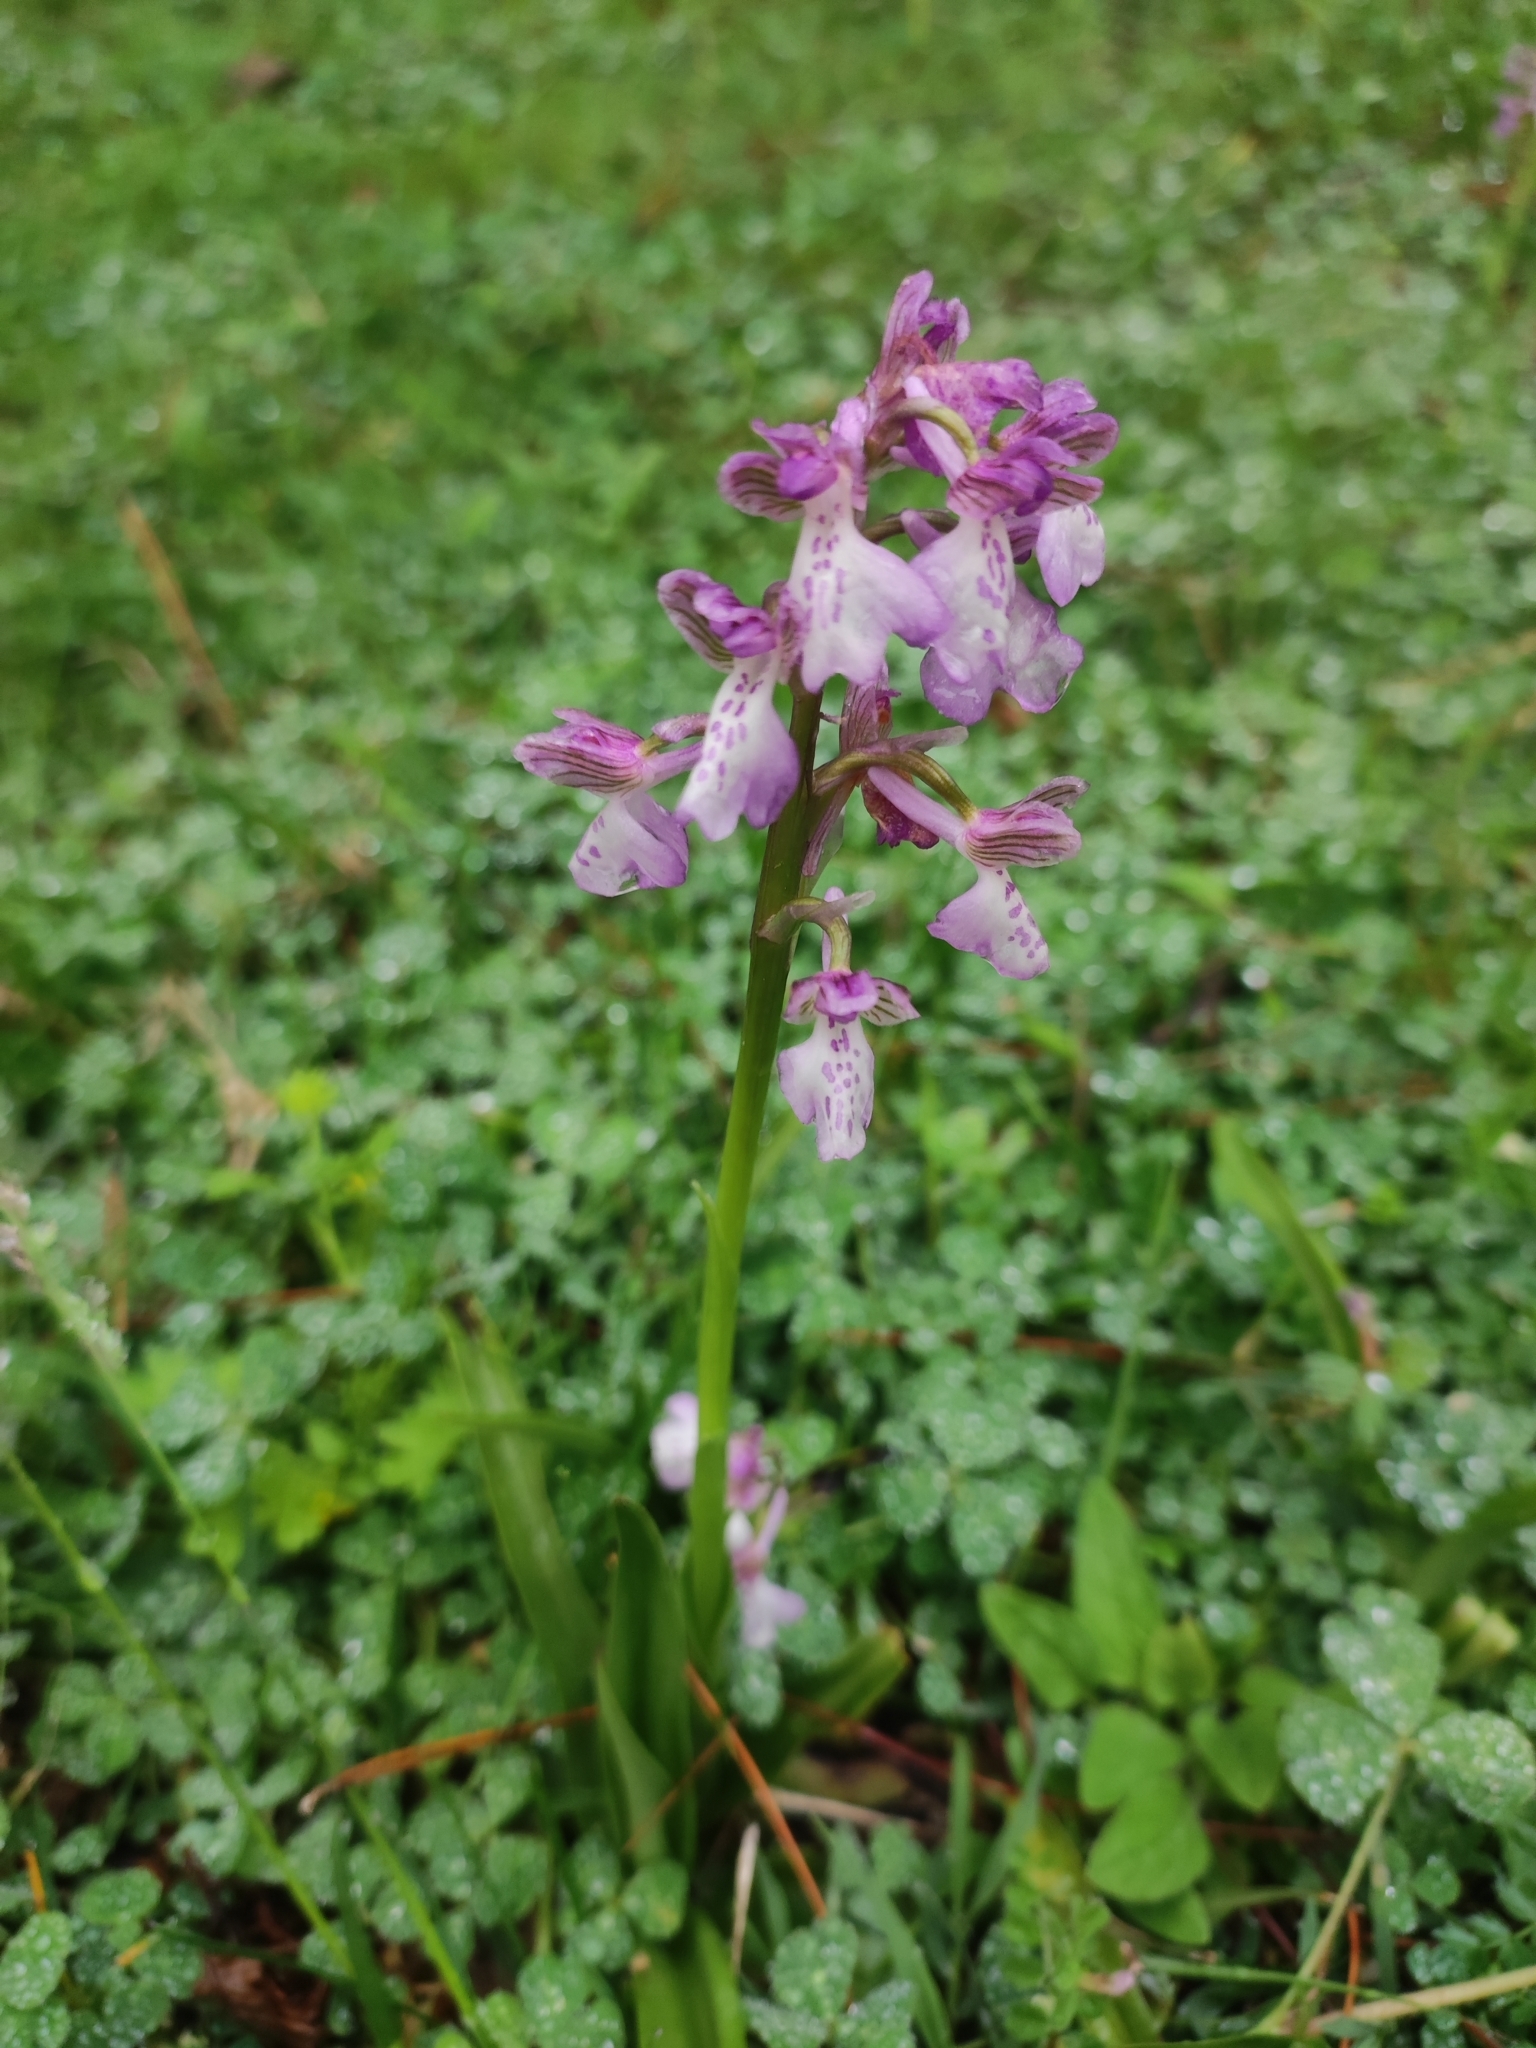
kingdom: Plantae
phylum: Tracheophyta
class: Liliopsida
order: Asparagales
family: Orchidaceae
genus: Anacamptis
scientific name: Anacamptis morio
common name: Green-winged orchid
